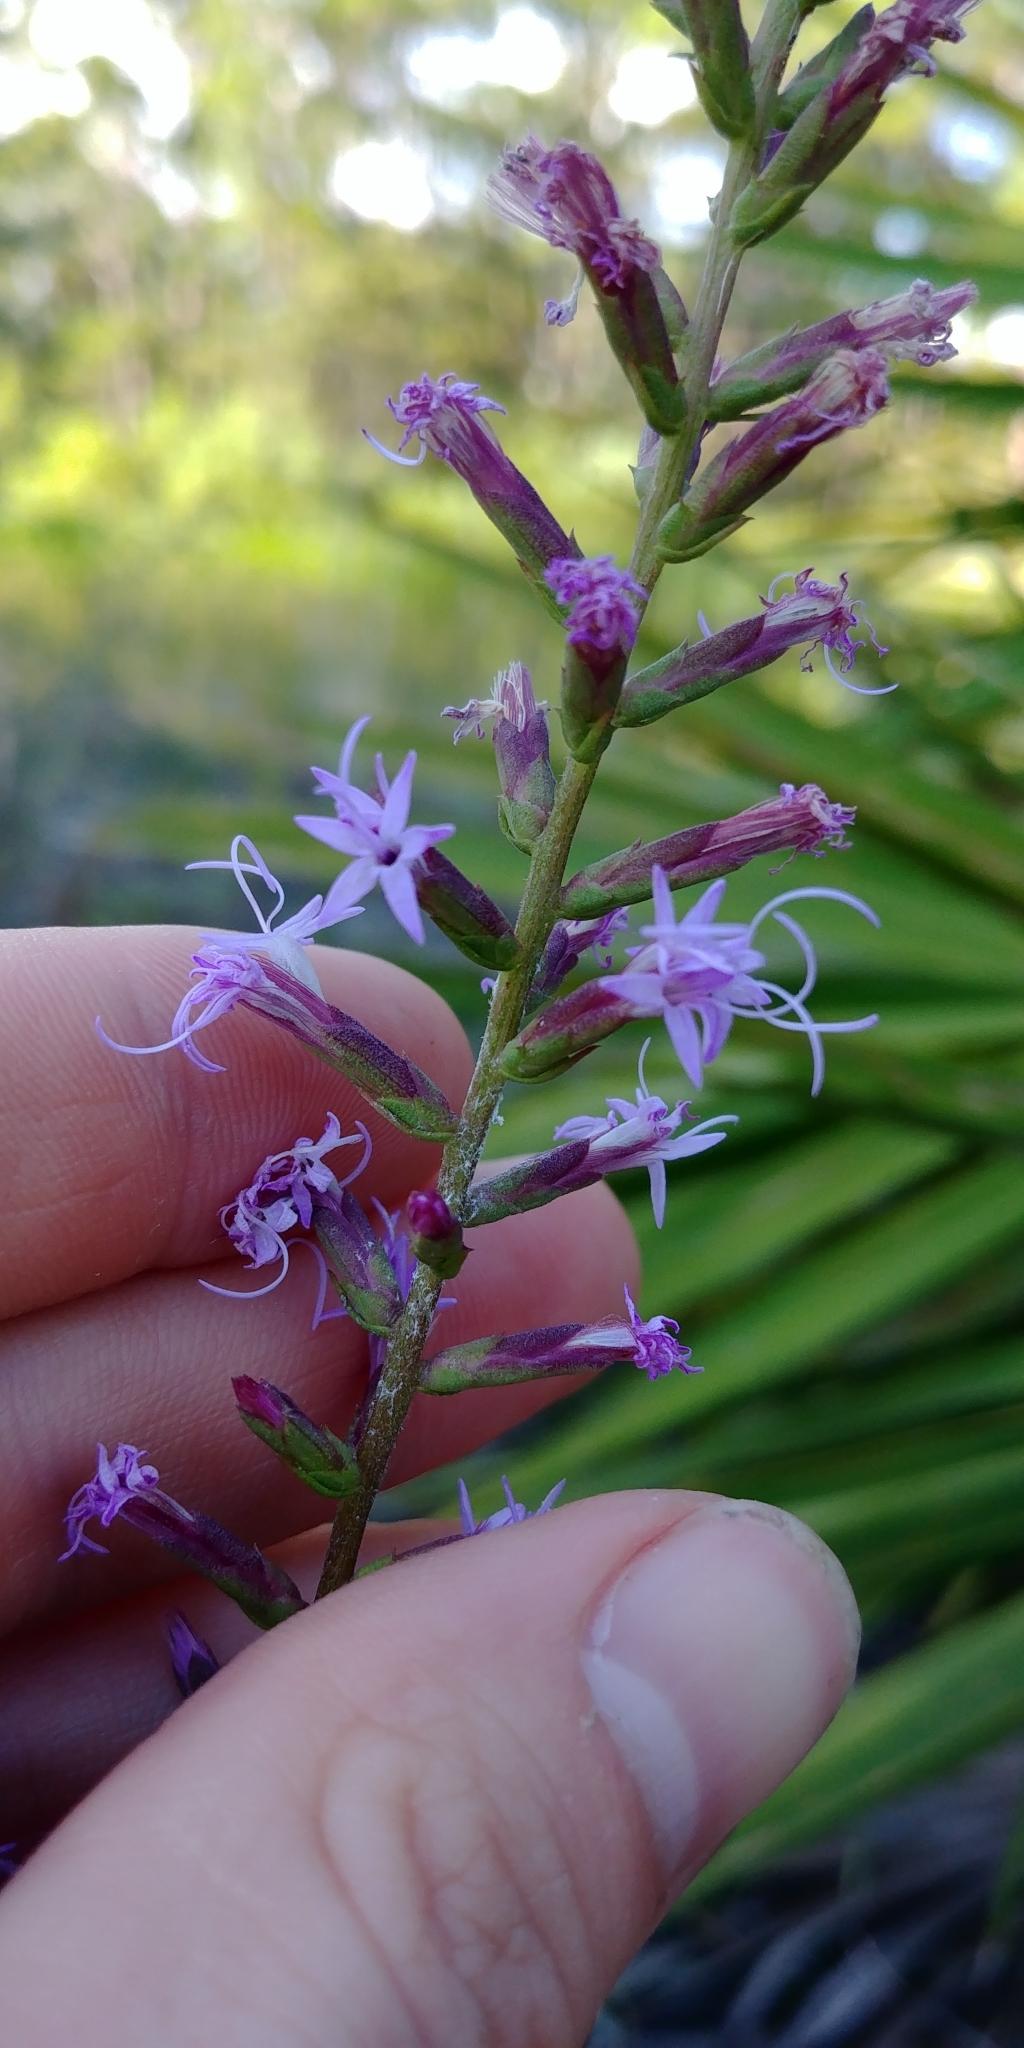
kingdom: Plantae
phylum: Tracheophyta
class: Magnoliopsida
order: Asterales
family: Asteraceae
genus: Liatris
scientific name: Liatris provincialis
